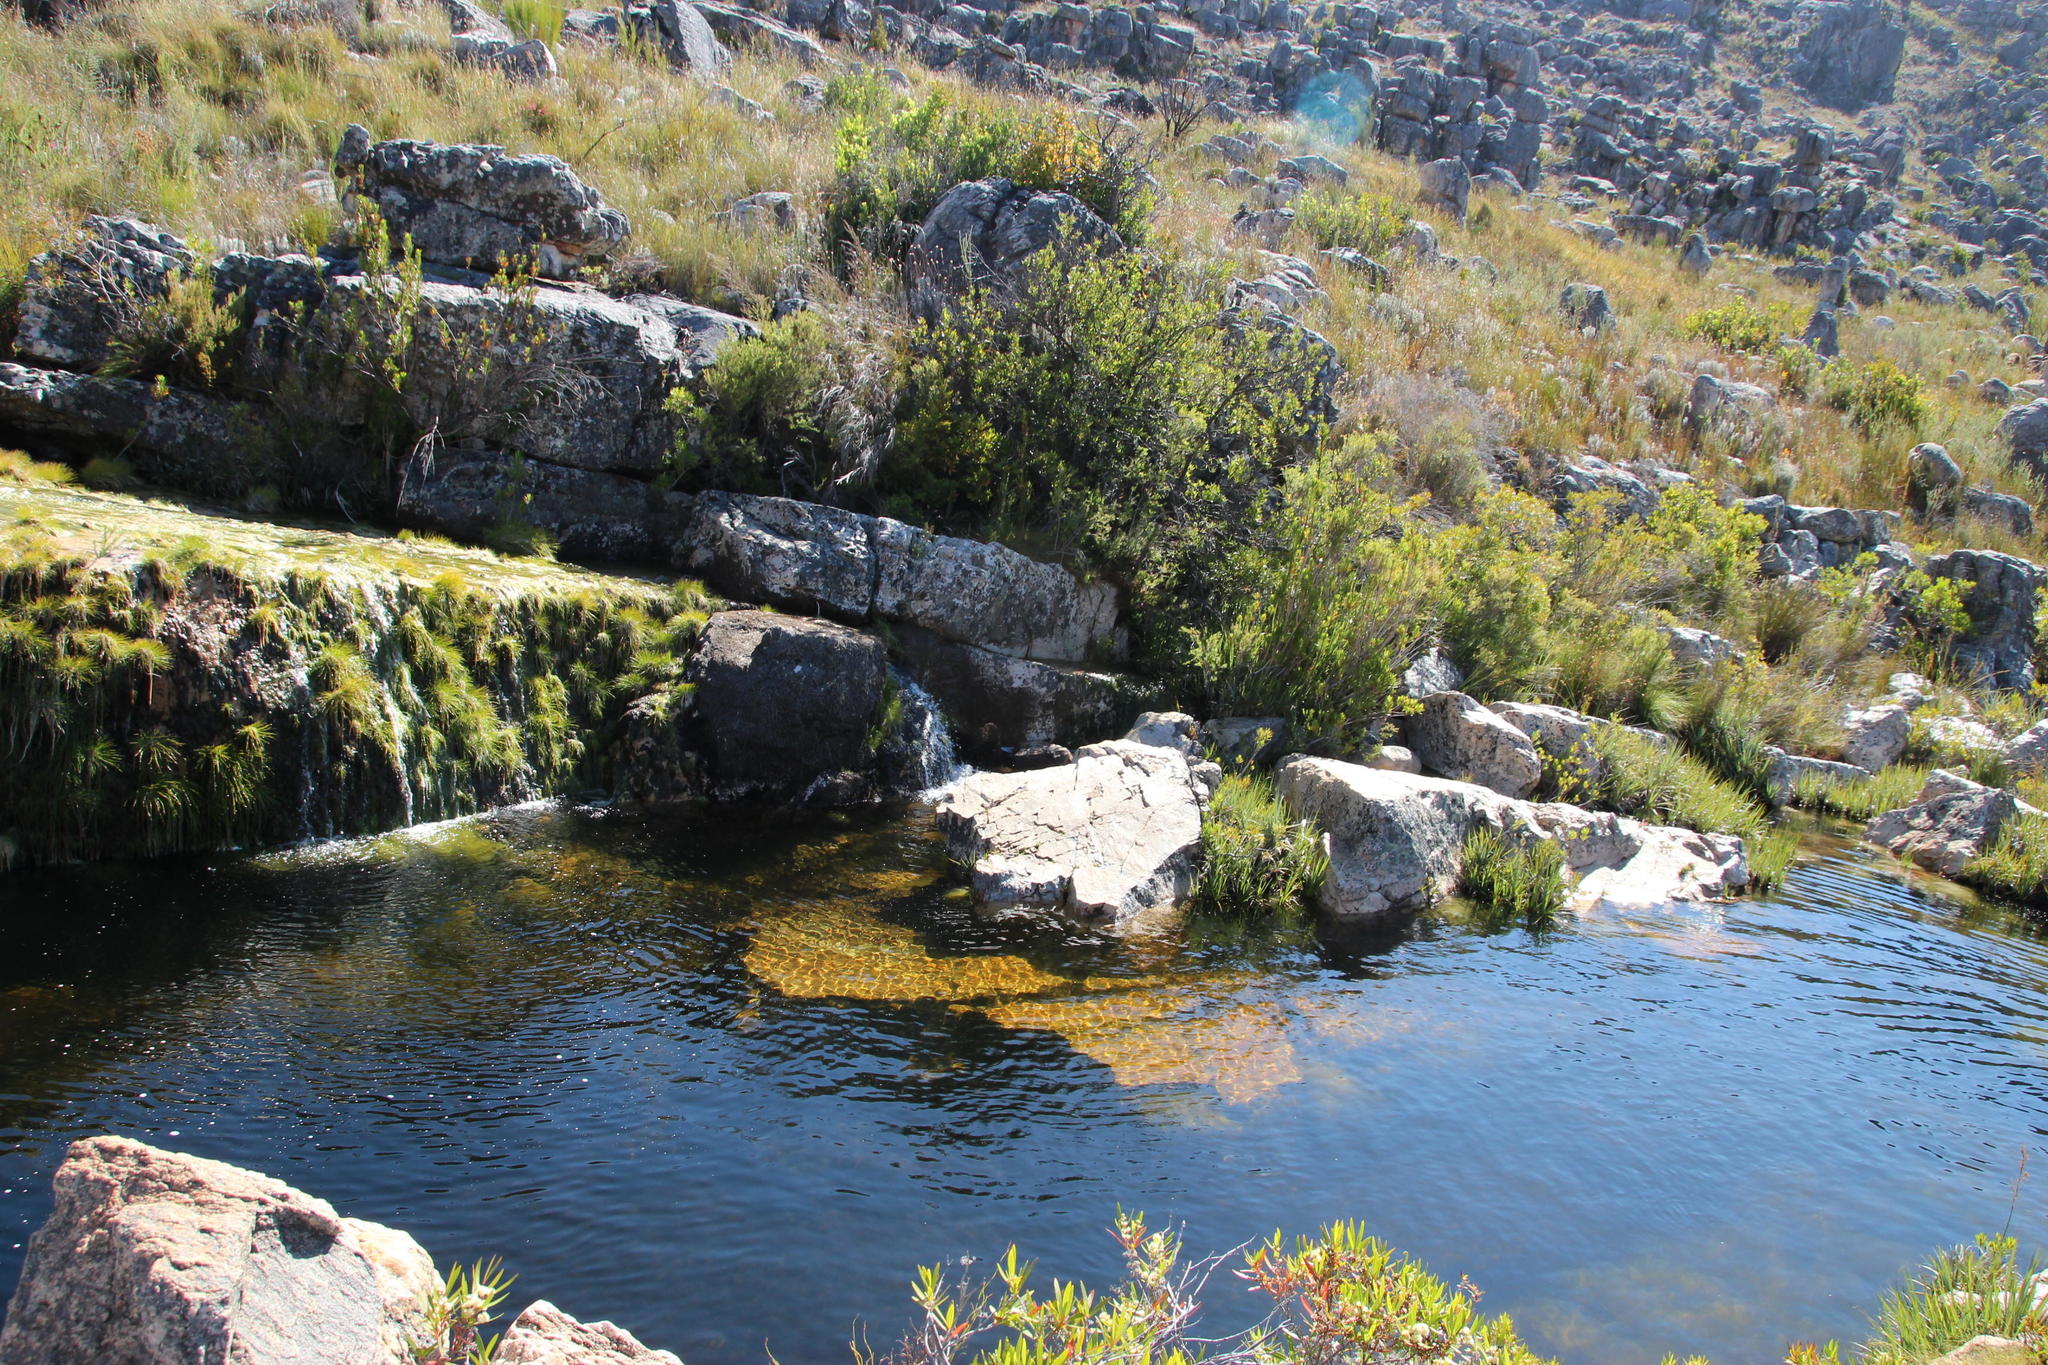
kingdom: Plantae
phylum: Tracheophyta
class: Magnoliopsida
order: Lamiales
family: Stilbaceae
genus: Ixianthes
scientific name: Ixianthes retzioides
